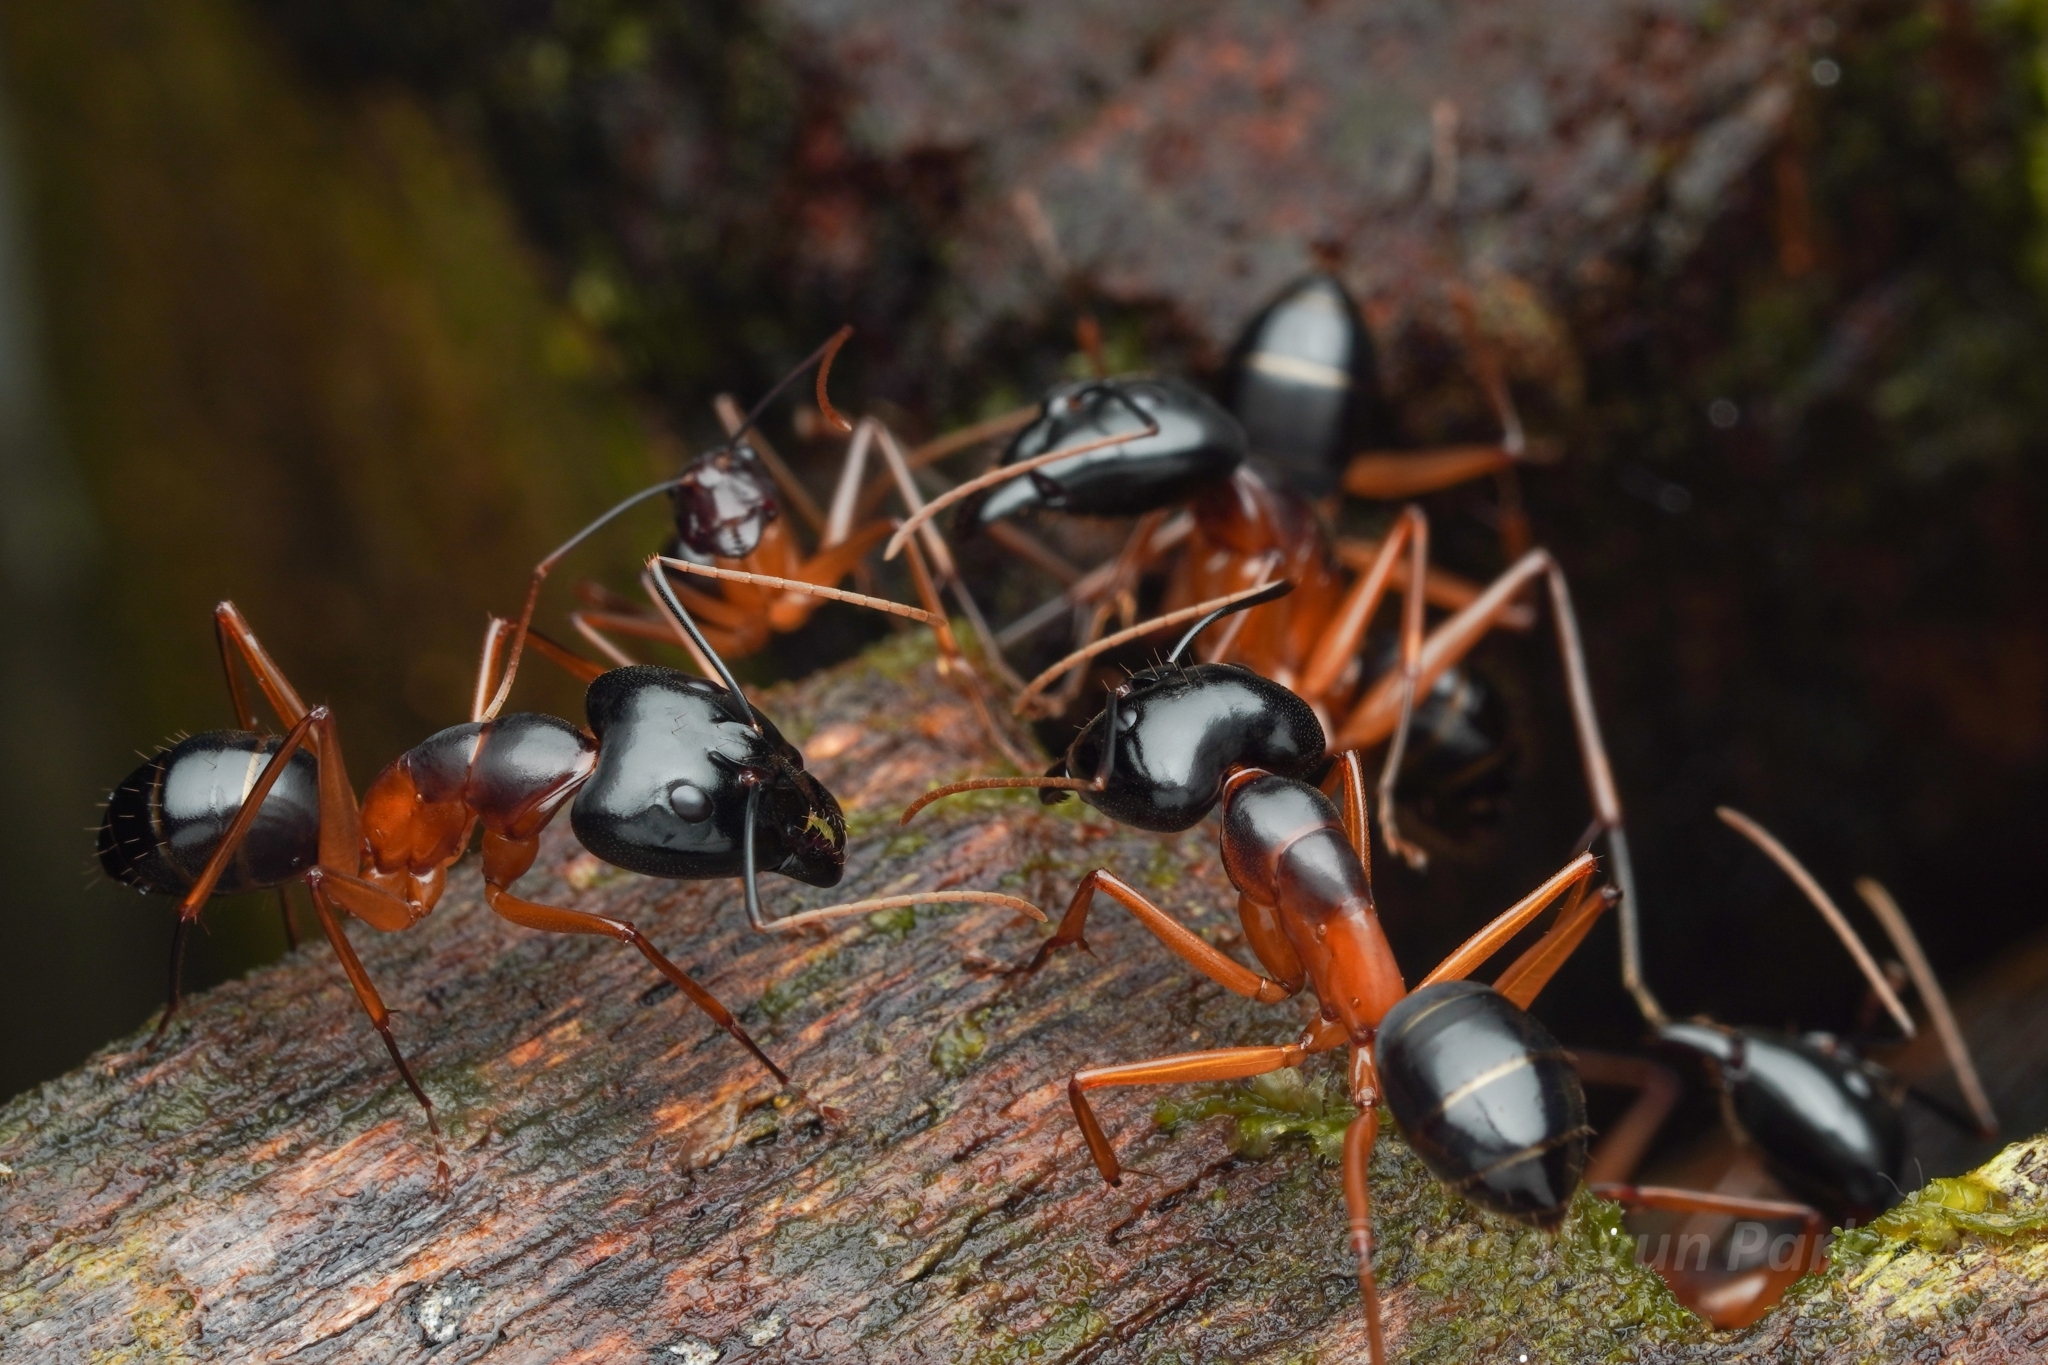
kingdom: Animalia
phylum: Arthropoda
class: Insecta
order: Hymenoptera
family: Formicidae
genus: Camponotus
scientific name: Camponotus festinus
